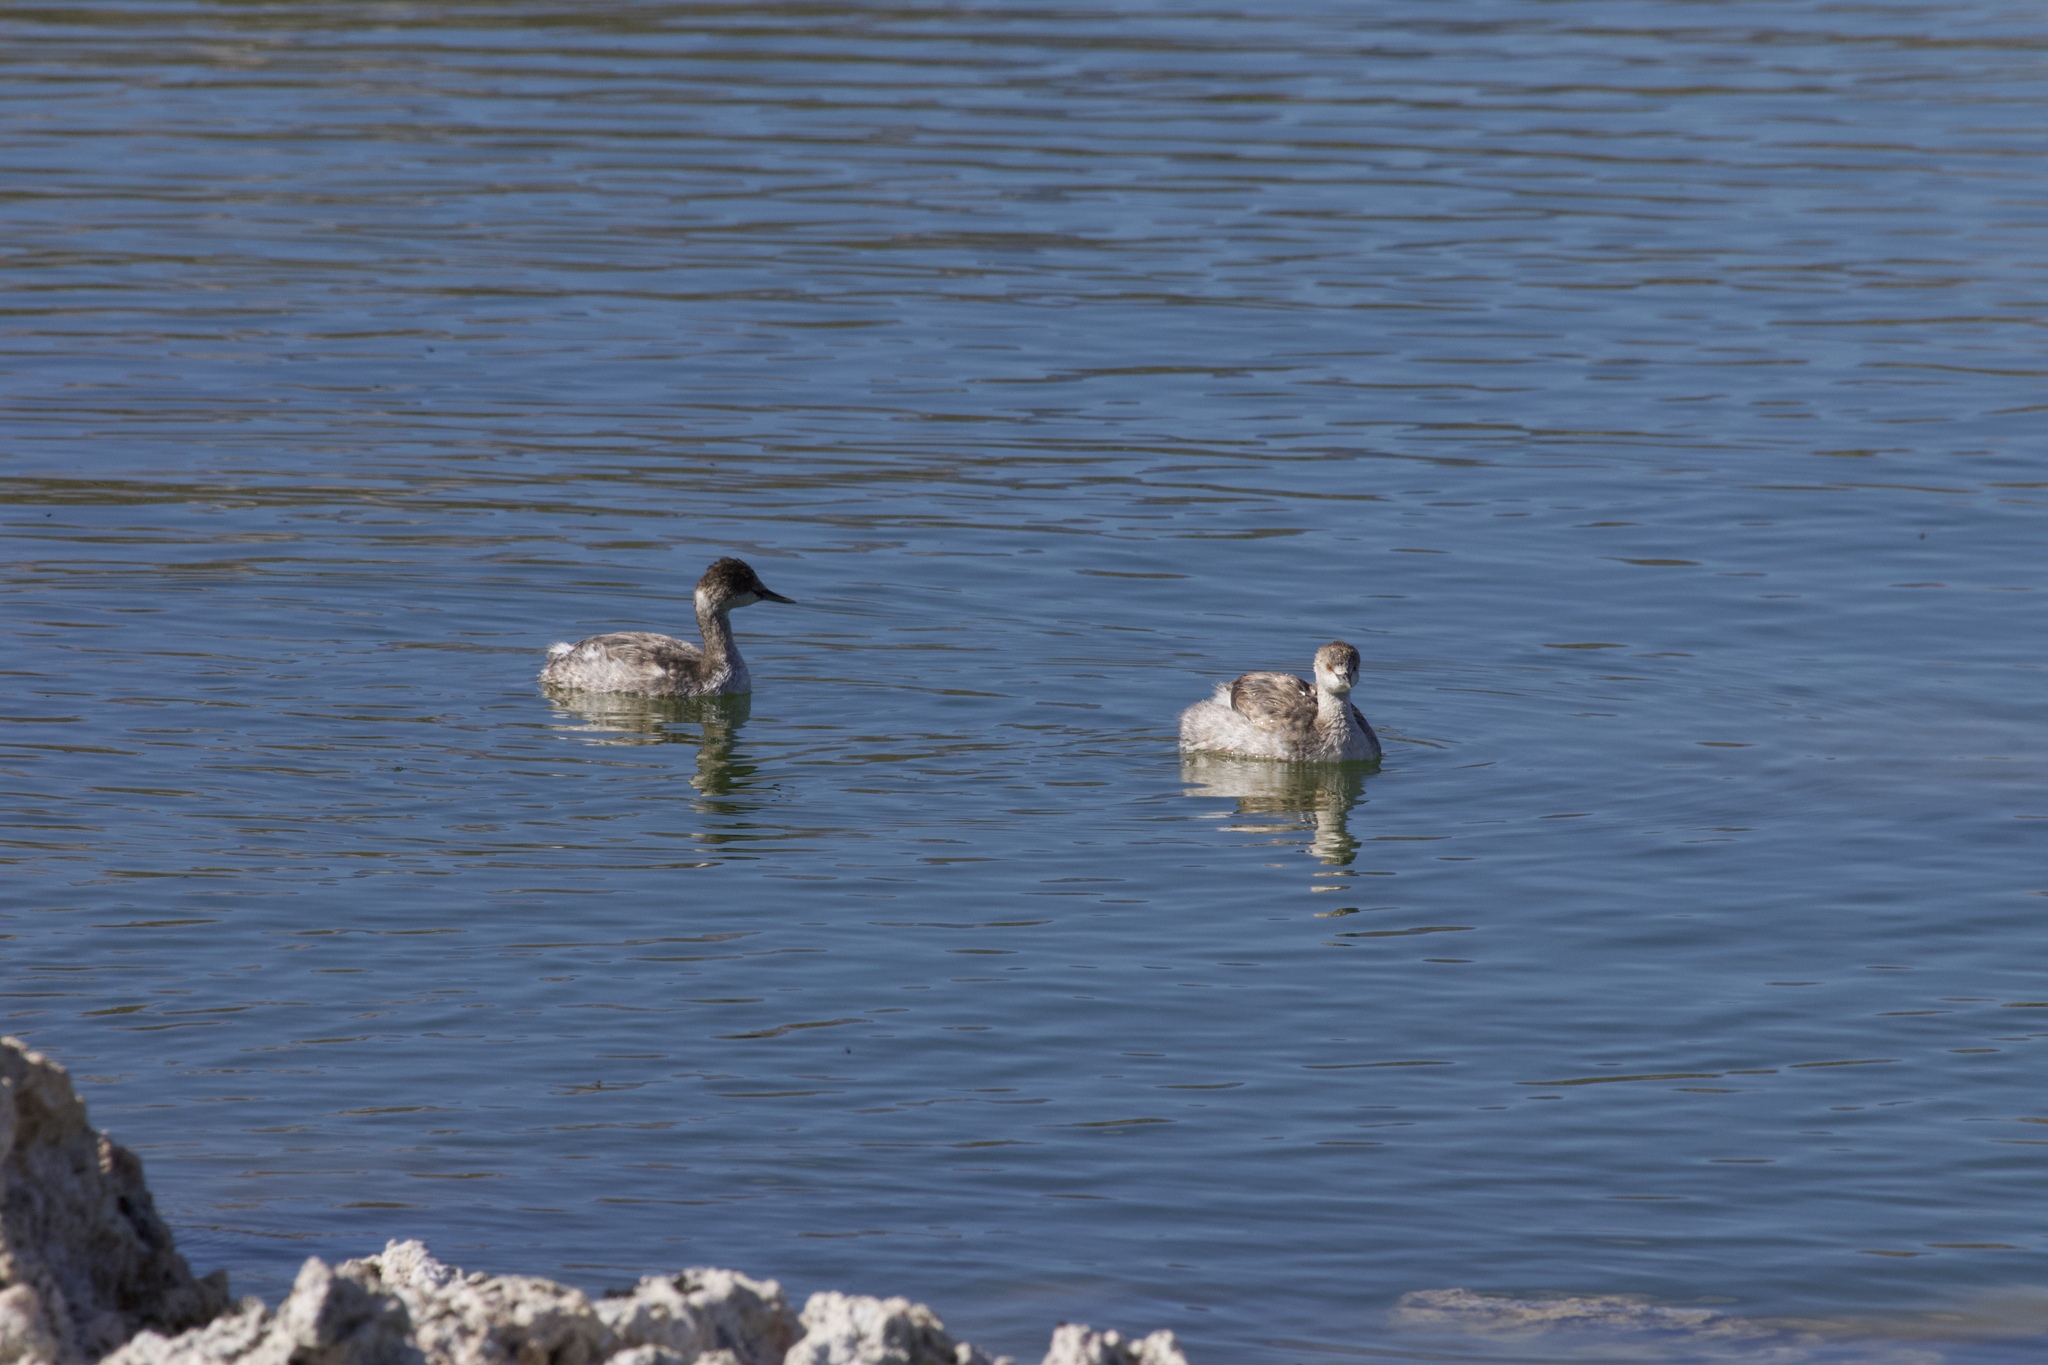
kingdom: Animalia
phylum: Chordata
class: Aves
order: Podicipediformes
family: Podicipedidae
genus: Podiceps
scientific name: Podiceps nigricollis
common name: Black-necked grebe
